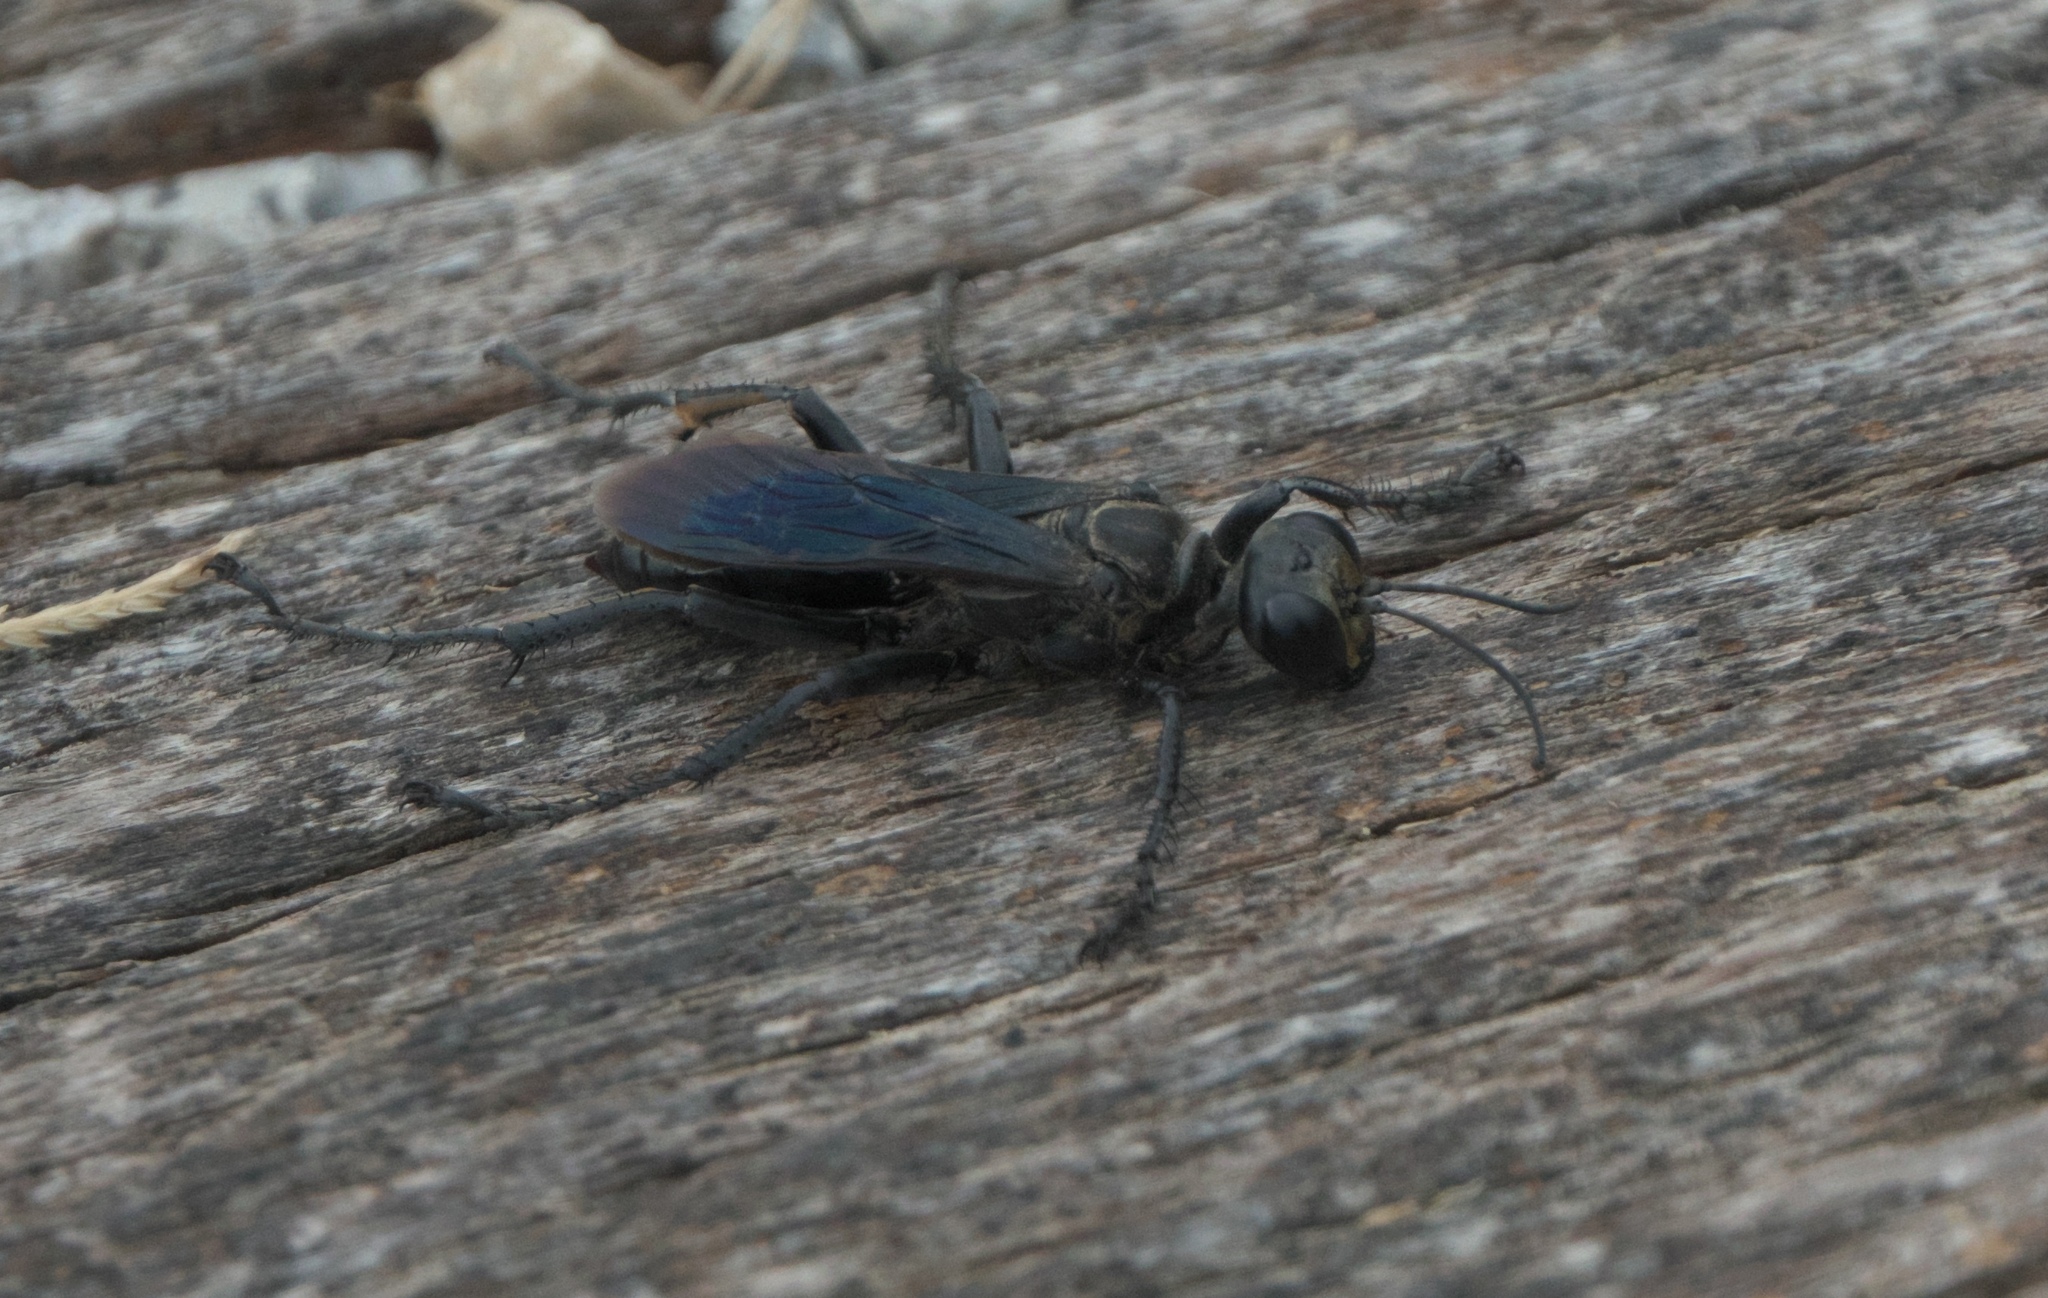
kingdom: Animalia
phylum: Arthropoda
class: Insecta
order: Hymenoptera
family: Sphecidae
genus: Prionyx
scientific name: Prionyx atratus
